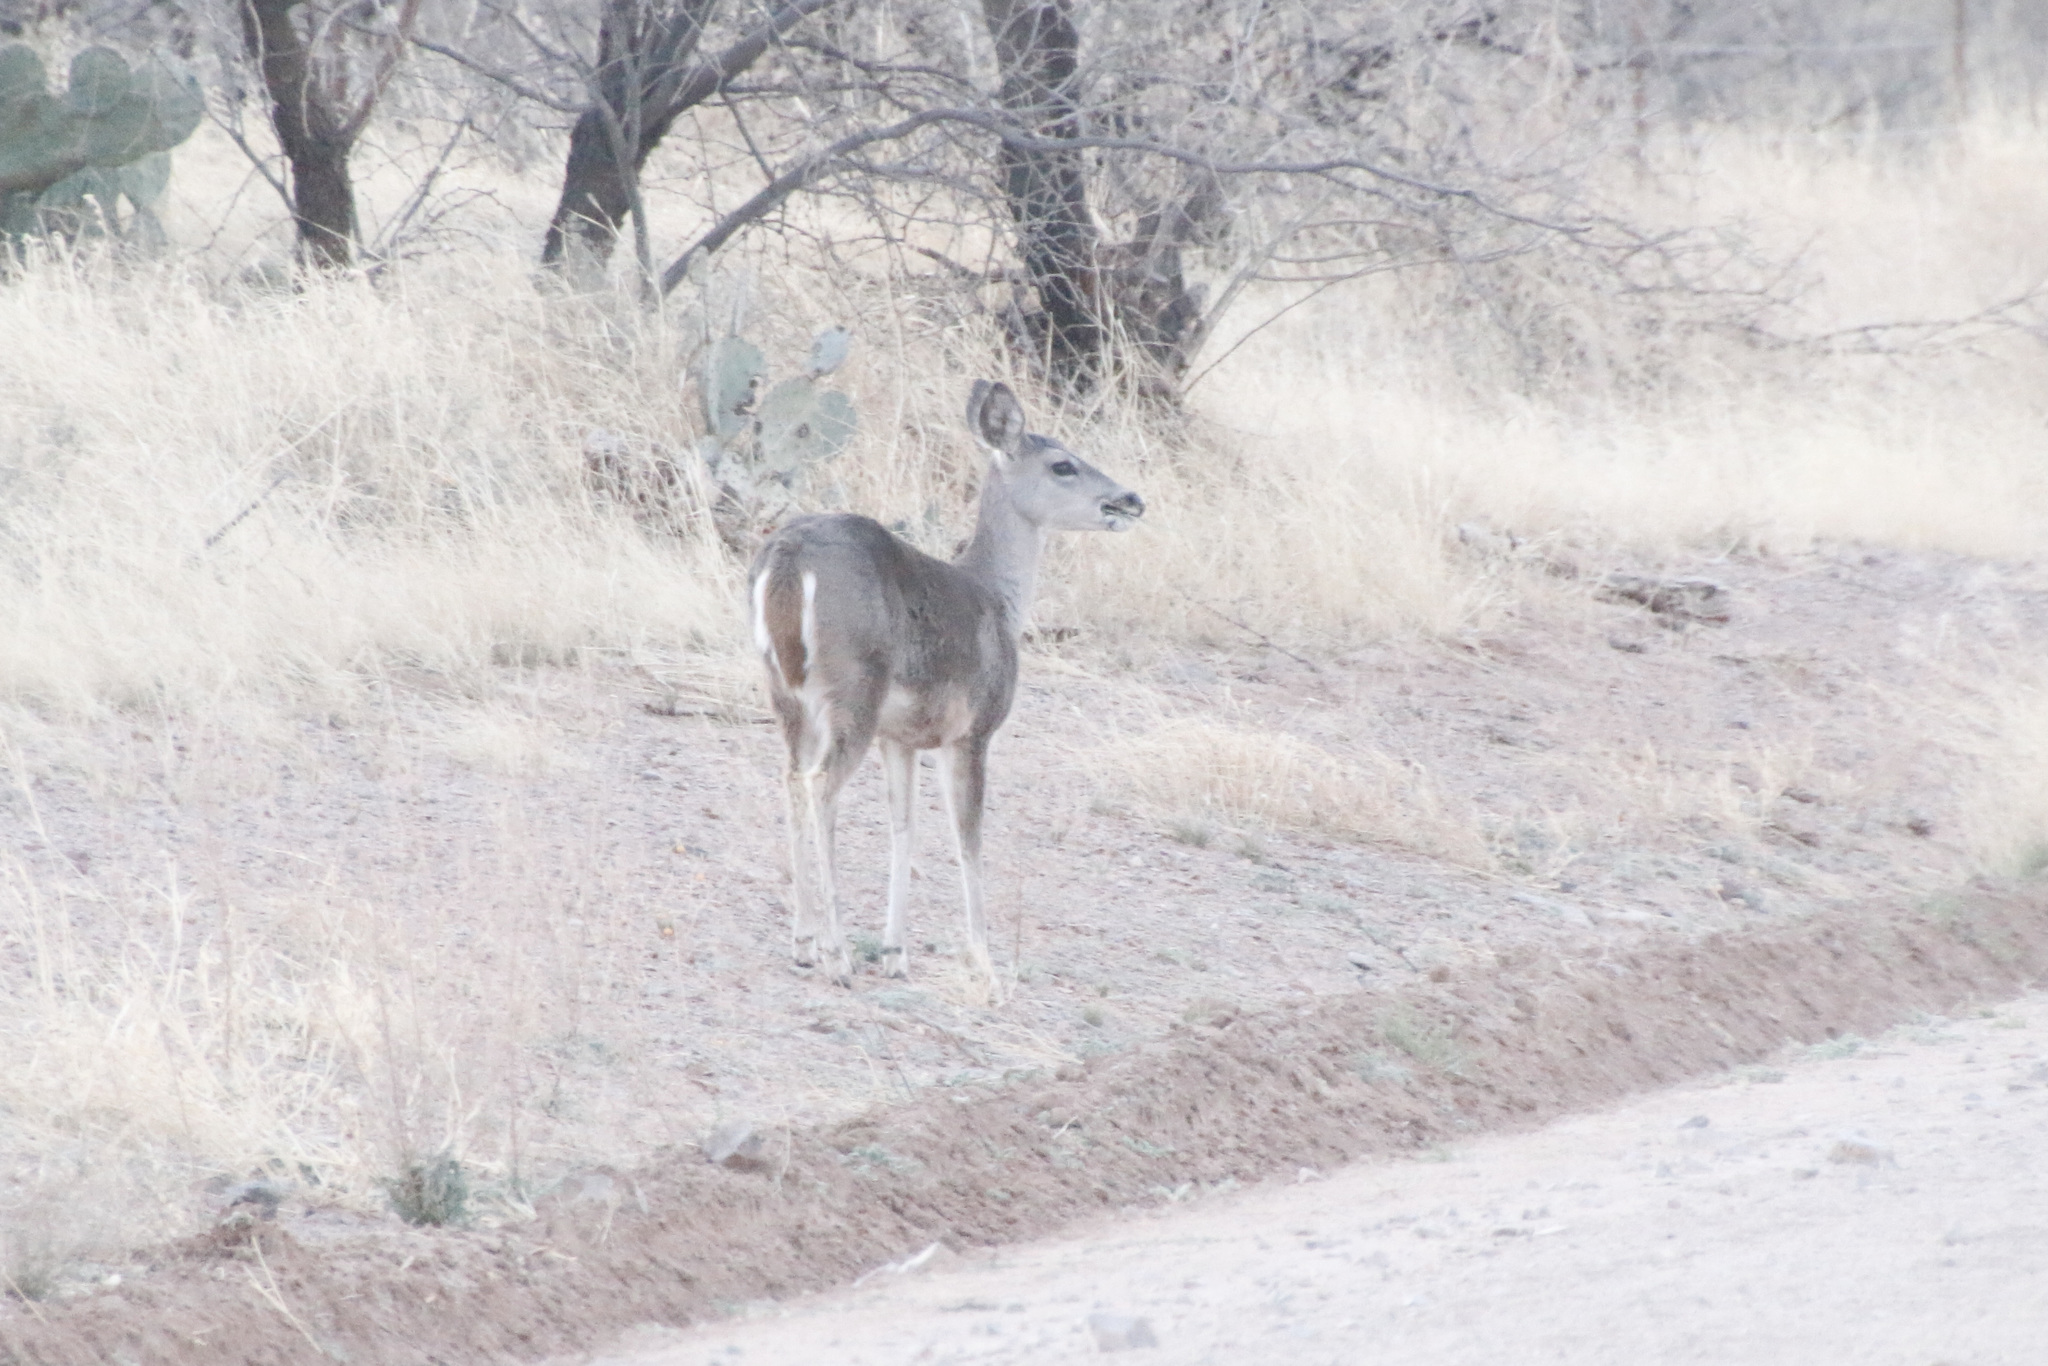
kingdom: Animalia
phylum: Chordata
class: Mammalia
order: Artiodactyla
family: Cervidae
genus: Odocoileus
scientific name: Odocoileus virginianus
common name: White-tailed deer
